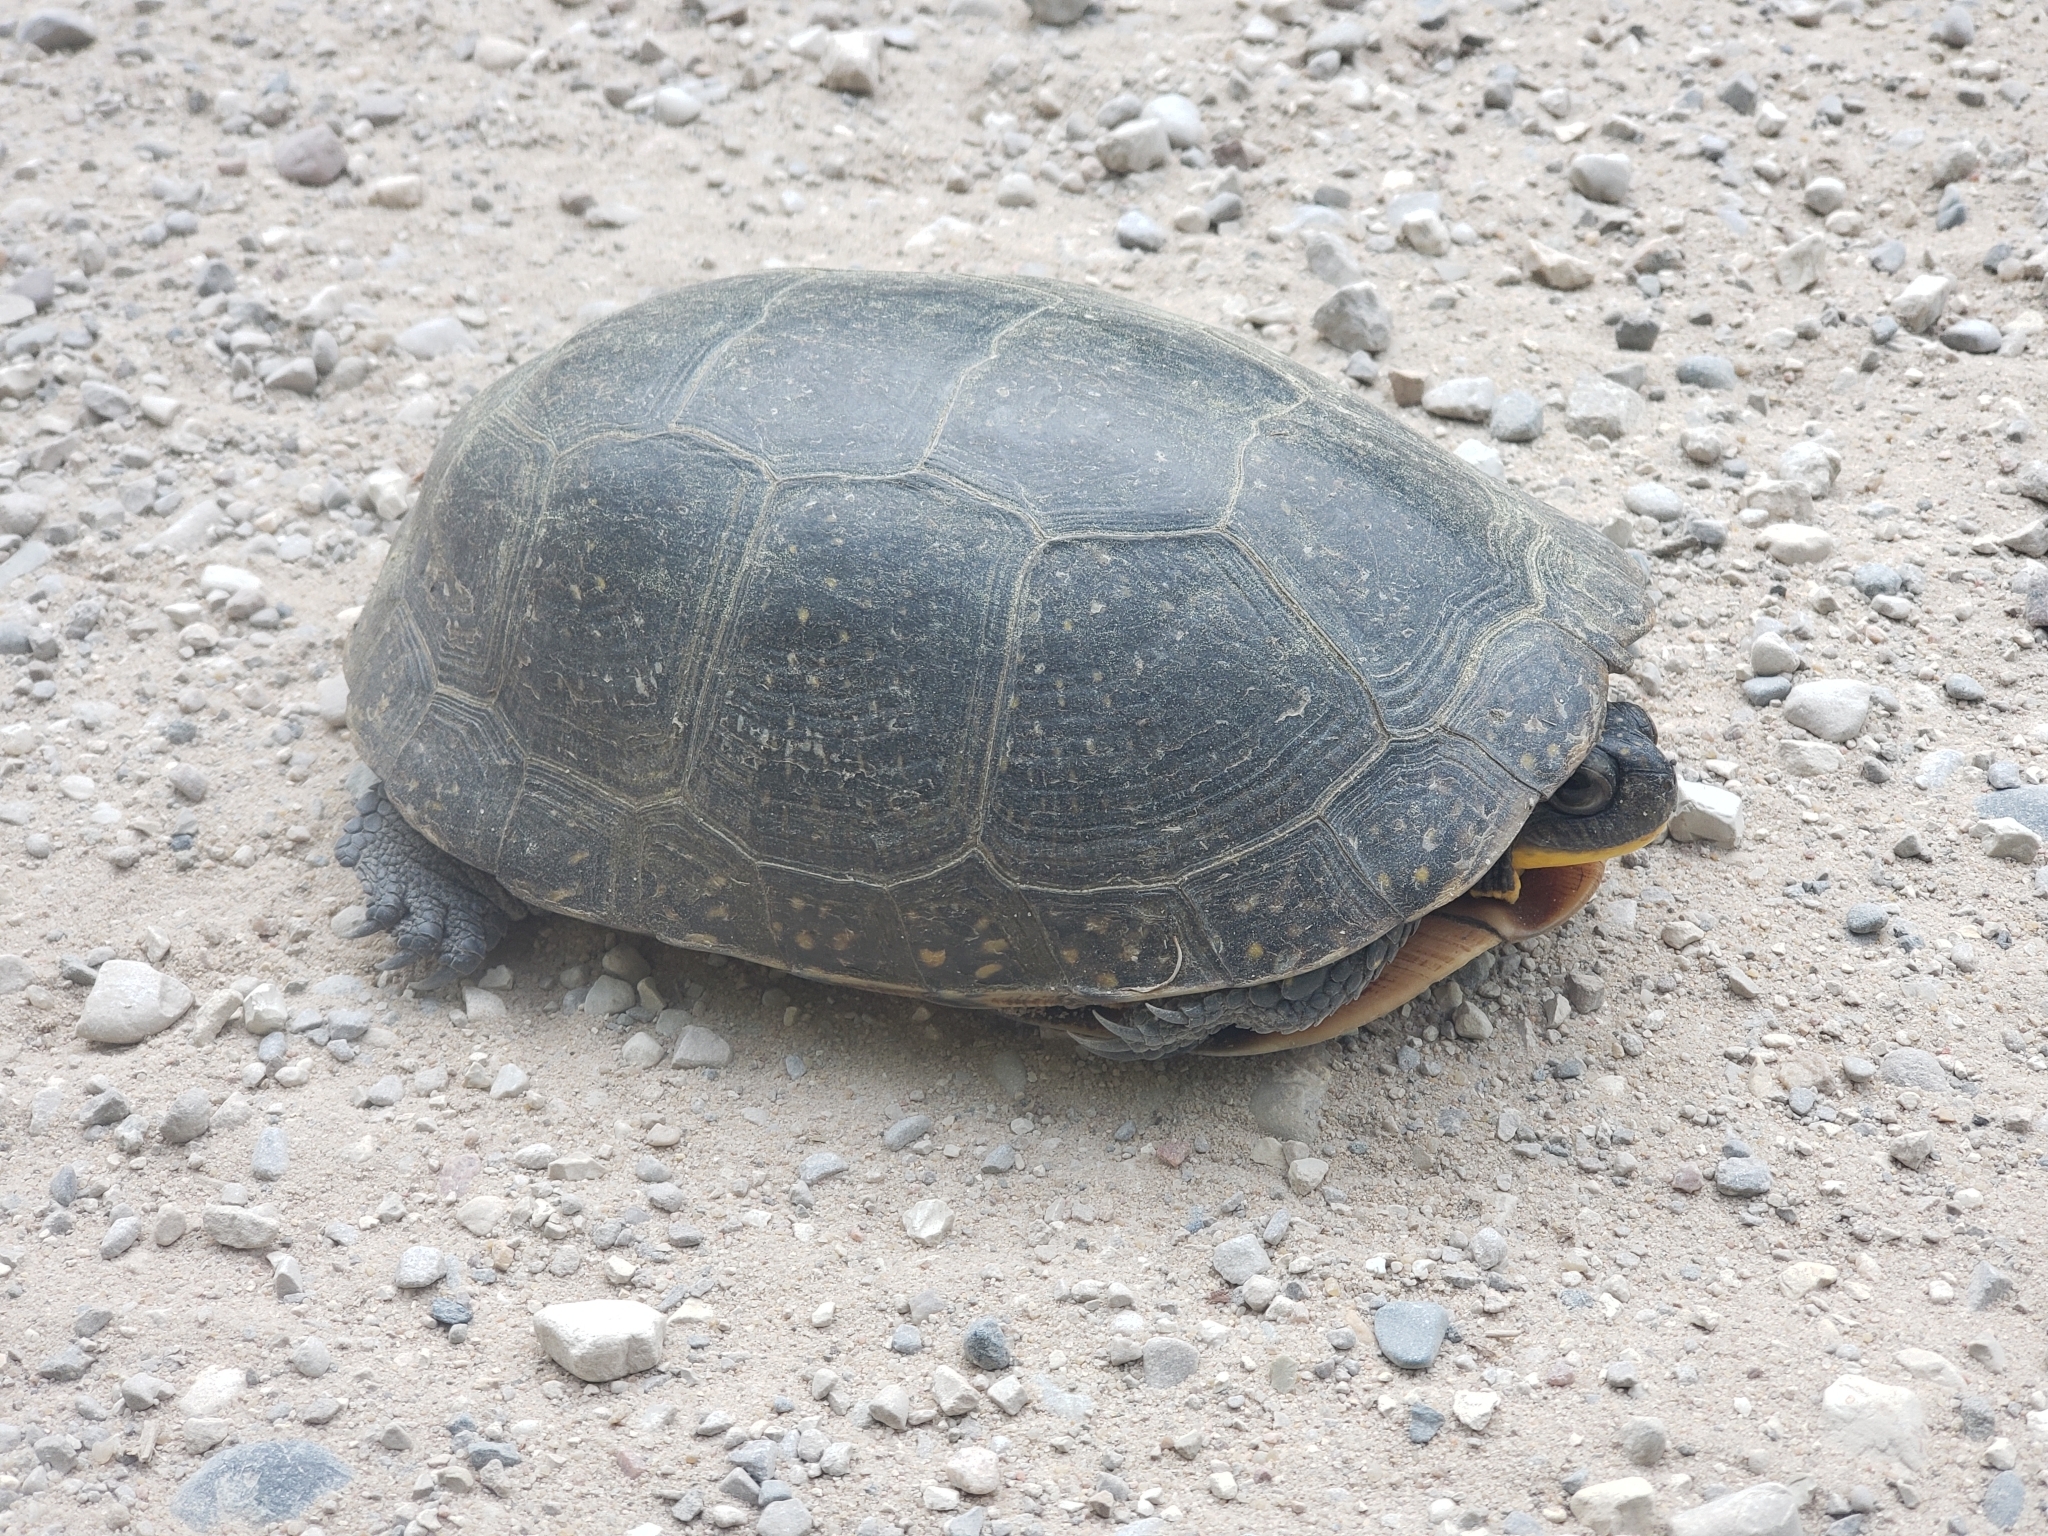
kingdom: Animalia
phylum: Chordata
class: Testudines
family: Emydidae
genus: Emys
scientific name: Emys blandingii
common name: Blanding's turtle
